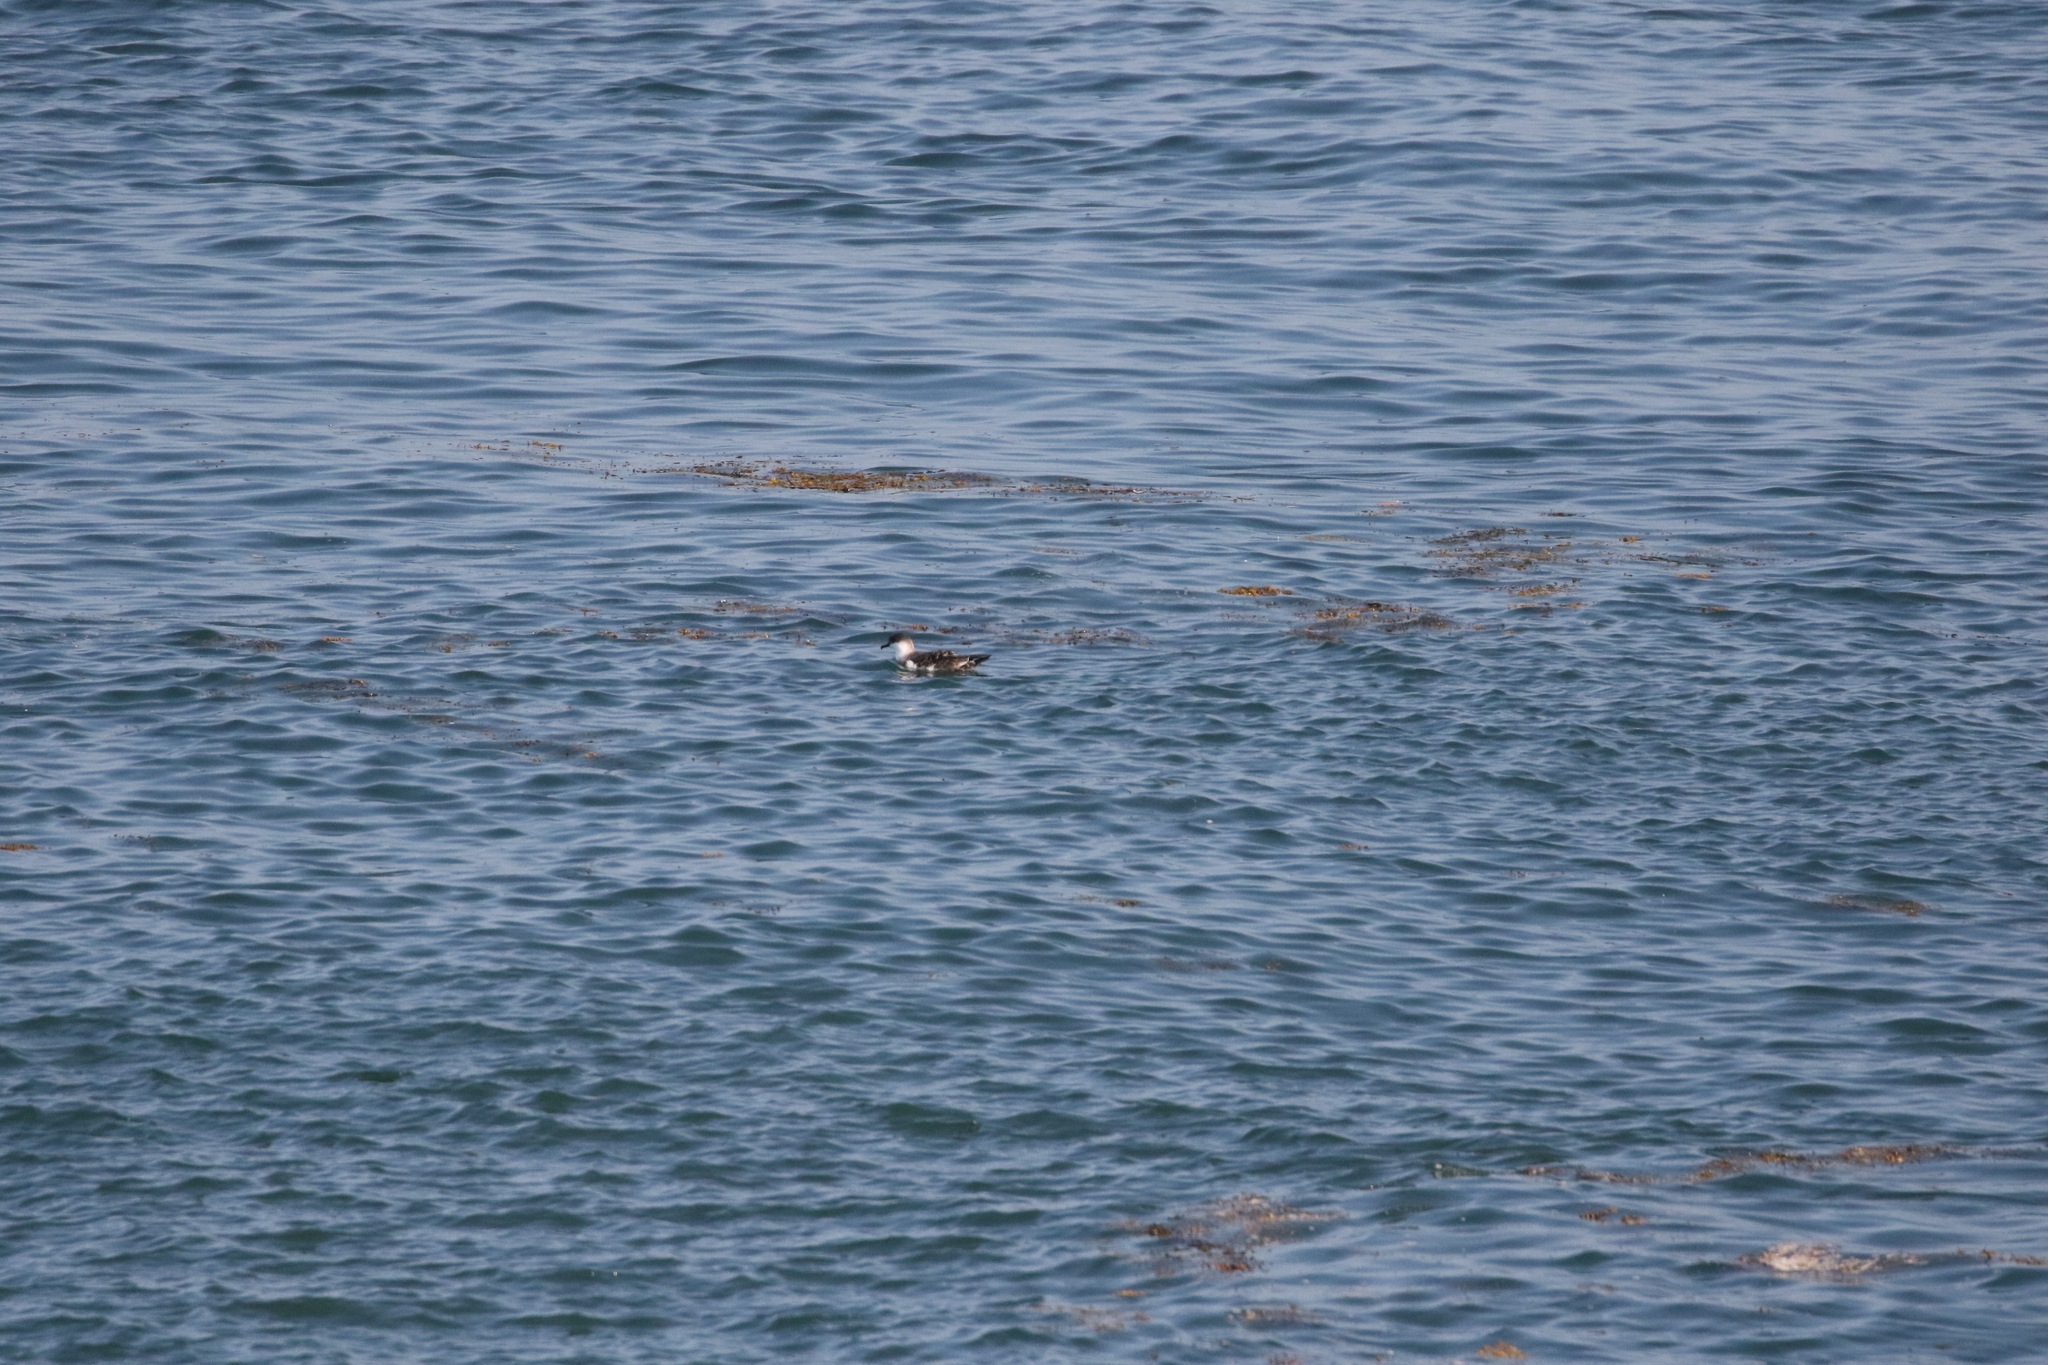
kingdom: Animalia
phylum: Chordata
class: Aves
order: Procellariiformes
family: Procellariidae
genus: Puffinus
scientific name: Puffinus gravis
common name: Great shearwater
